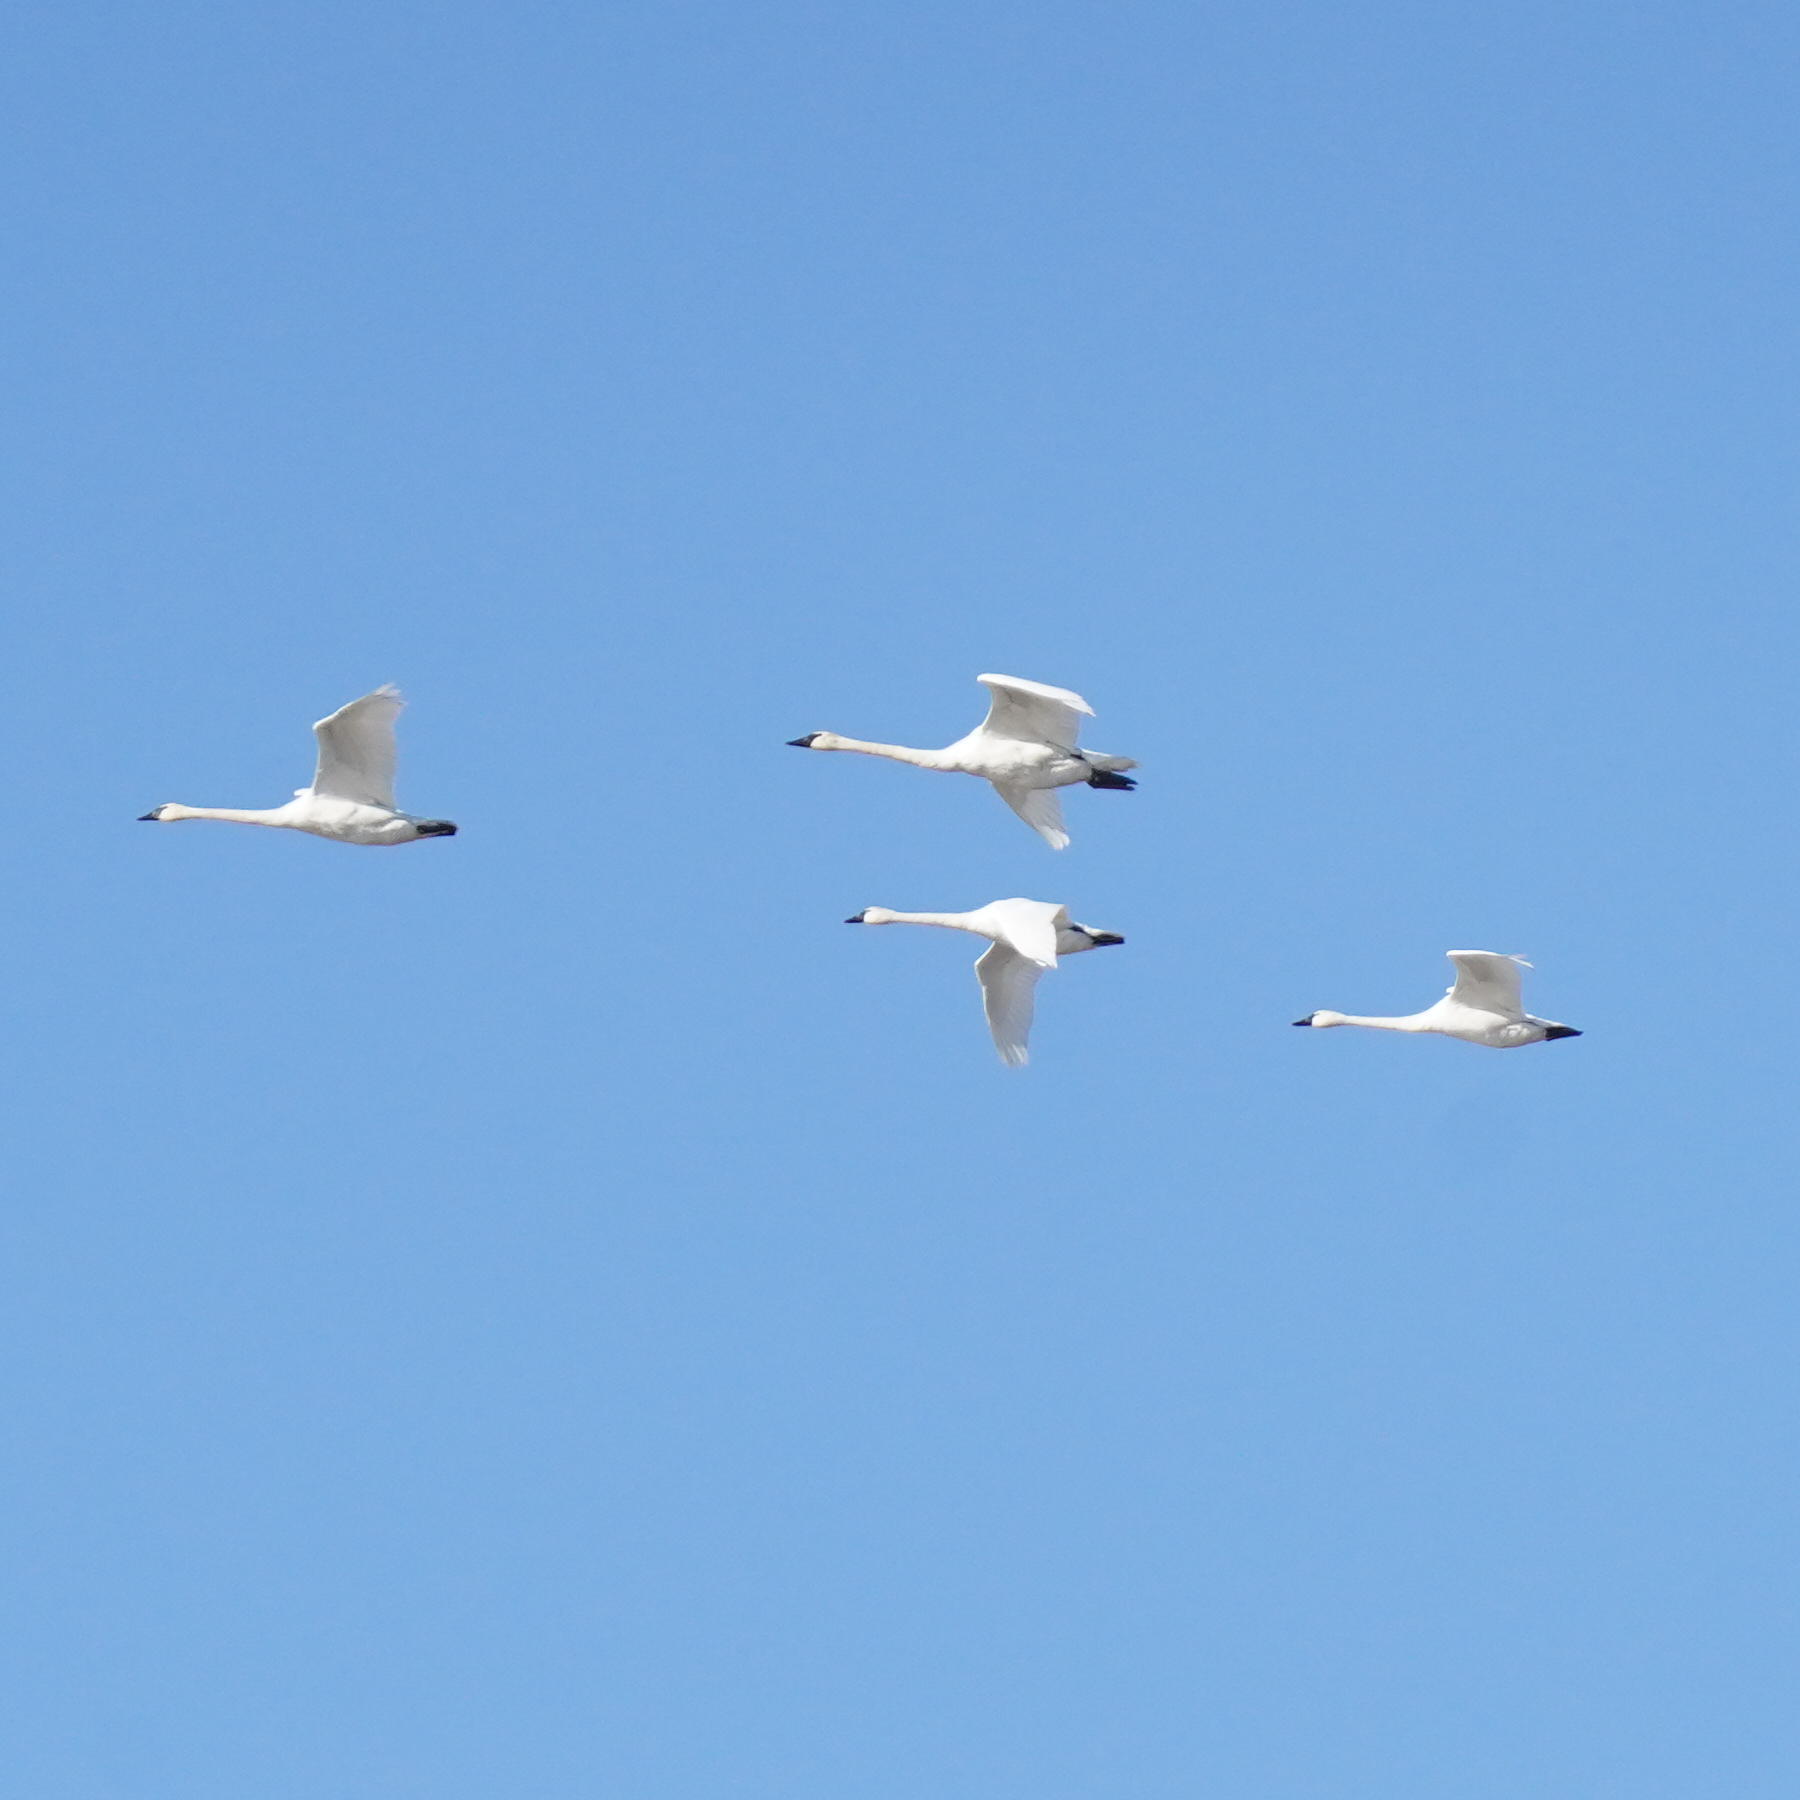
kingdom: Animalia
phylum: Chordata
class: Aves
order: Anseriformes
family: Anatidae
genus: Cygnus
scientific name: Cygnus buccinator
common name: Trumpeter swan
